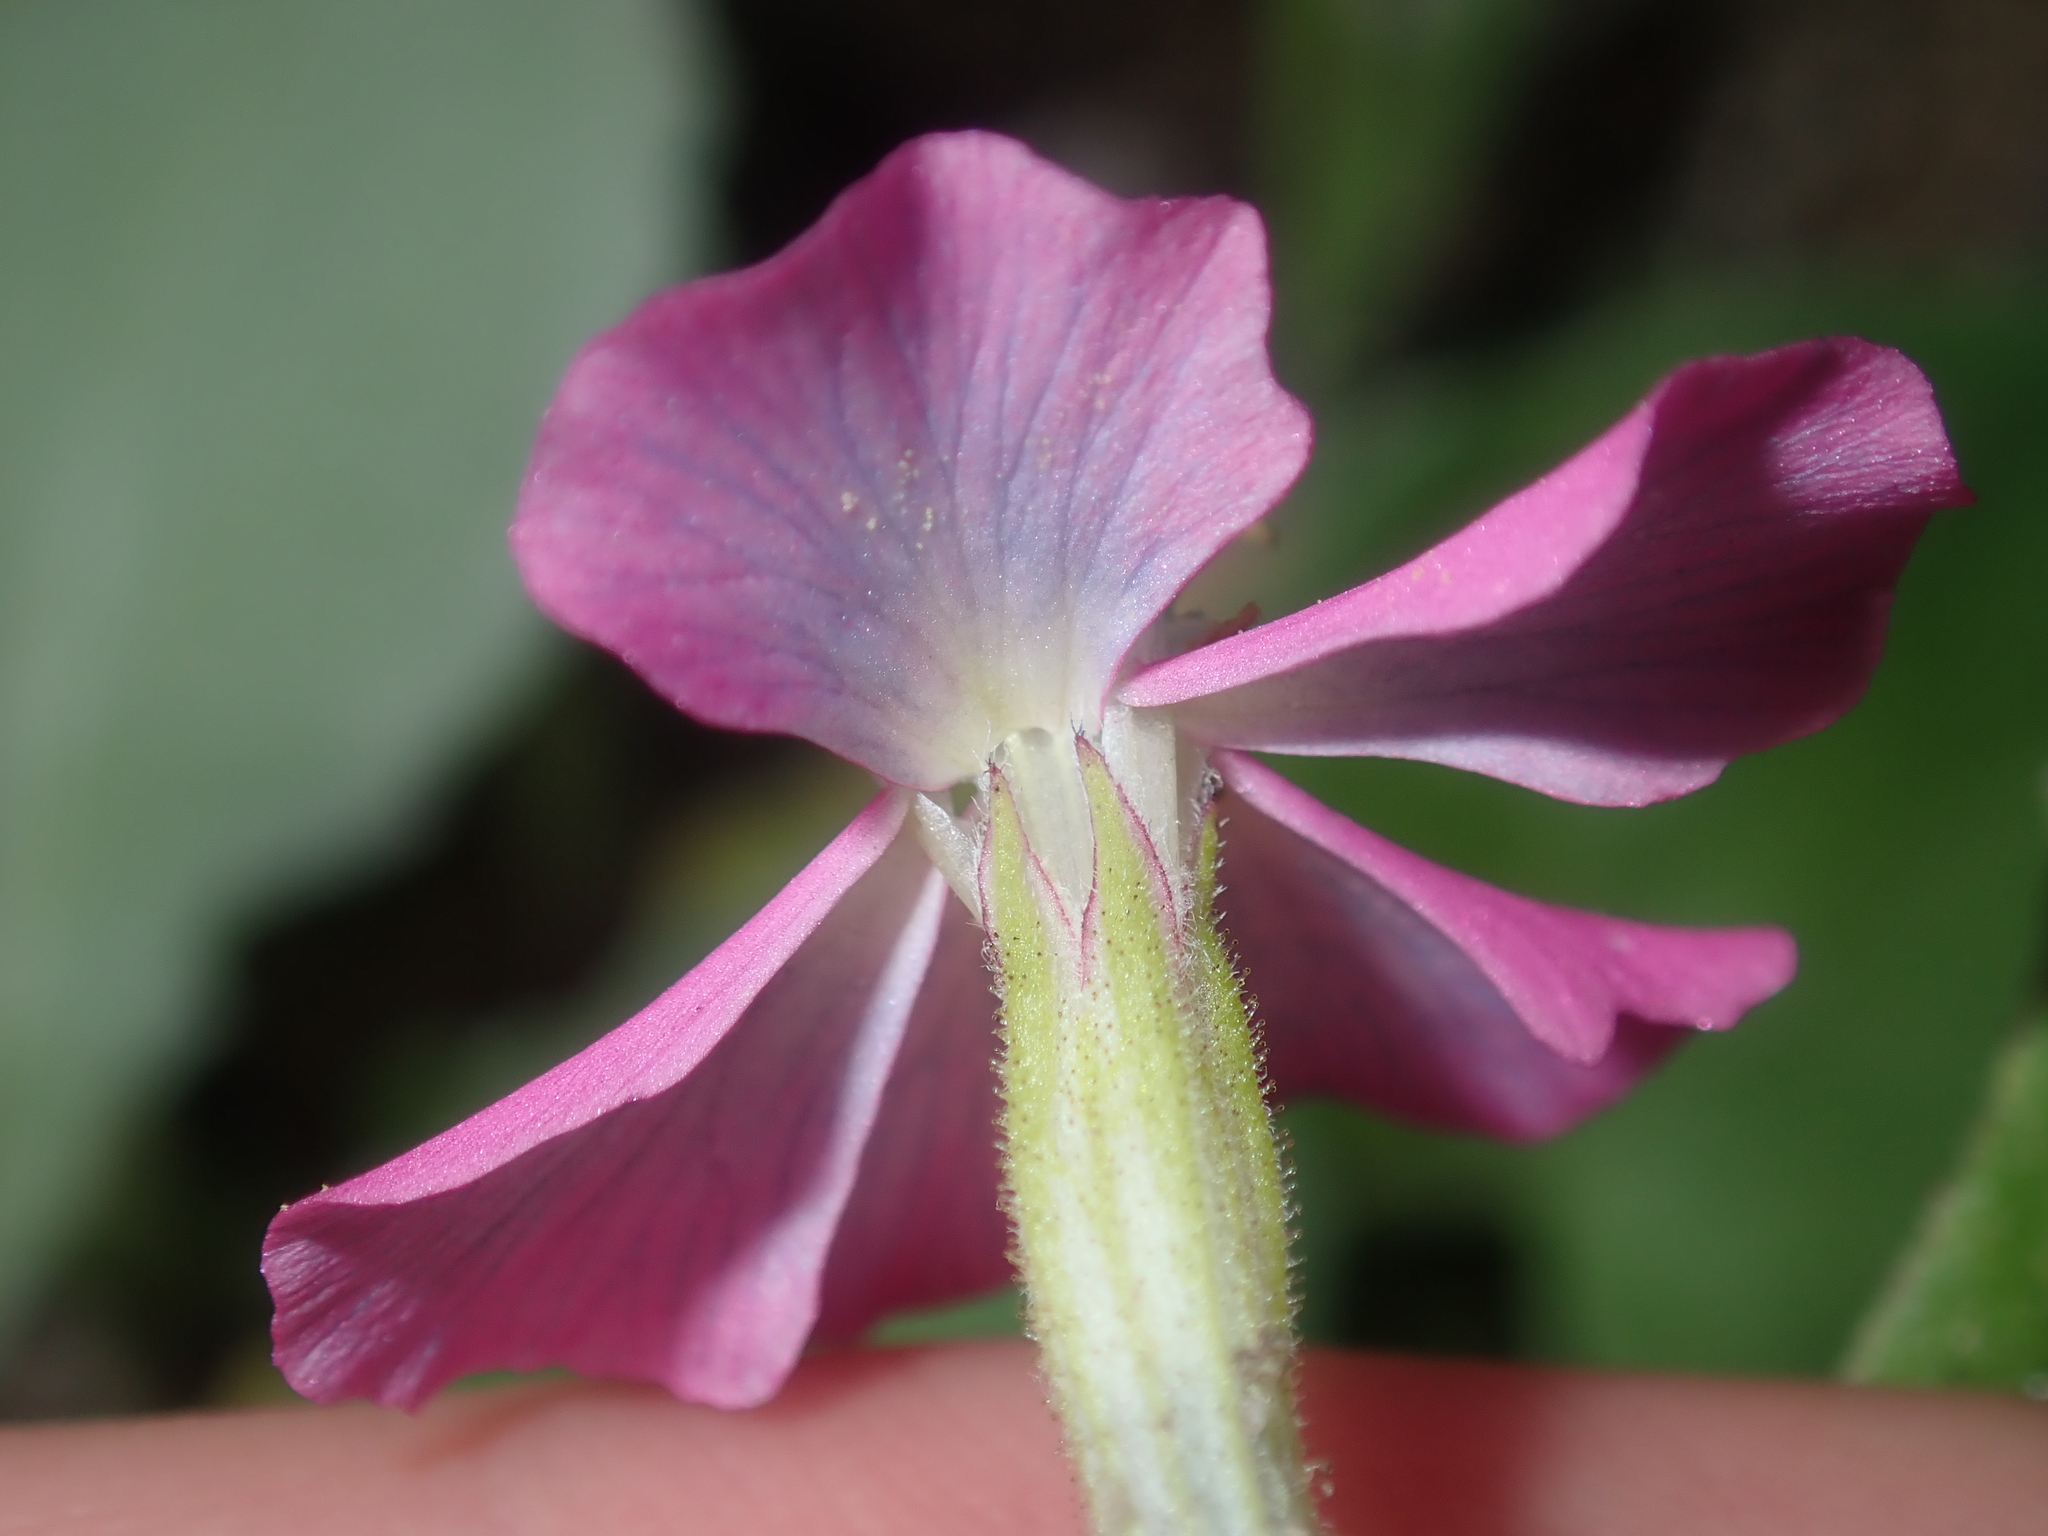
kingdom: Plantae
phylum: Tracheophyta
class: Magnoliopsida
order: Caryophyllales
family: Caryophyllaceae
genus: Silene
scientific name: Silene caroliniana
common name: Sticky catchfly
